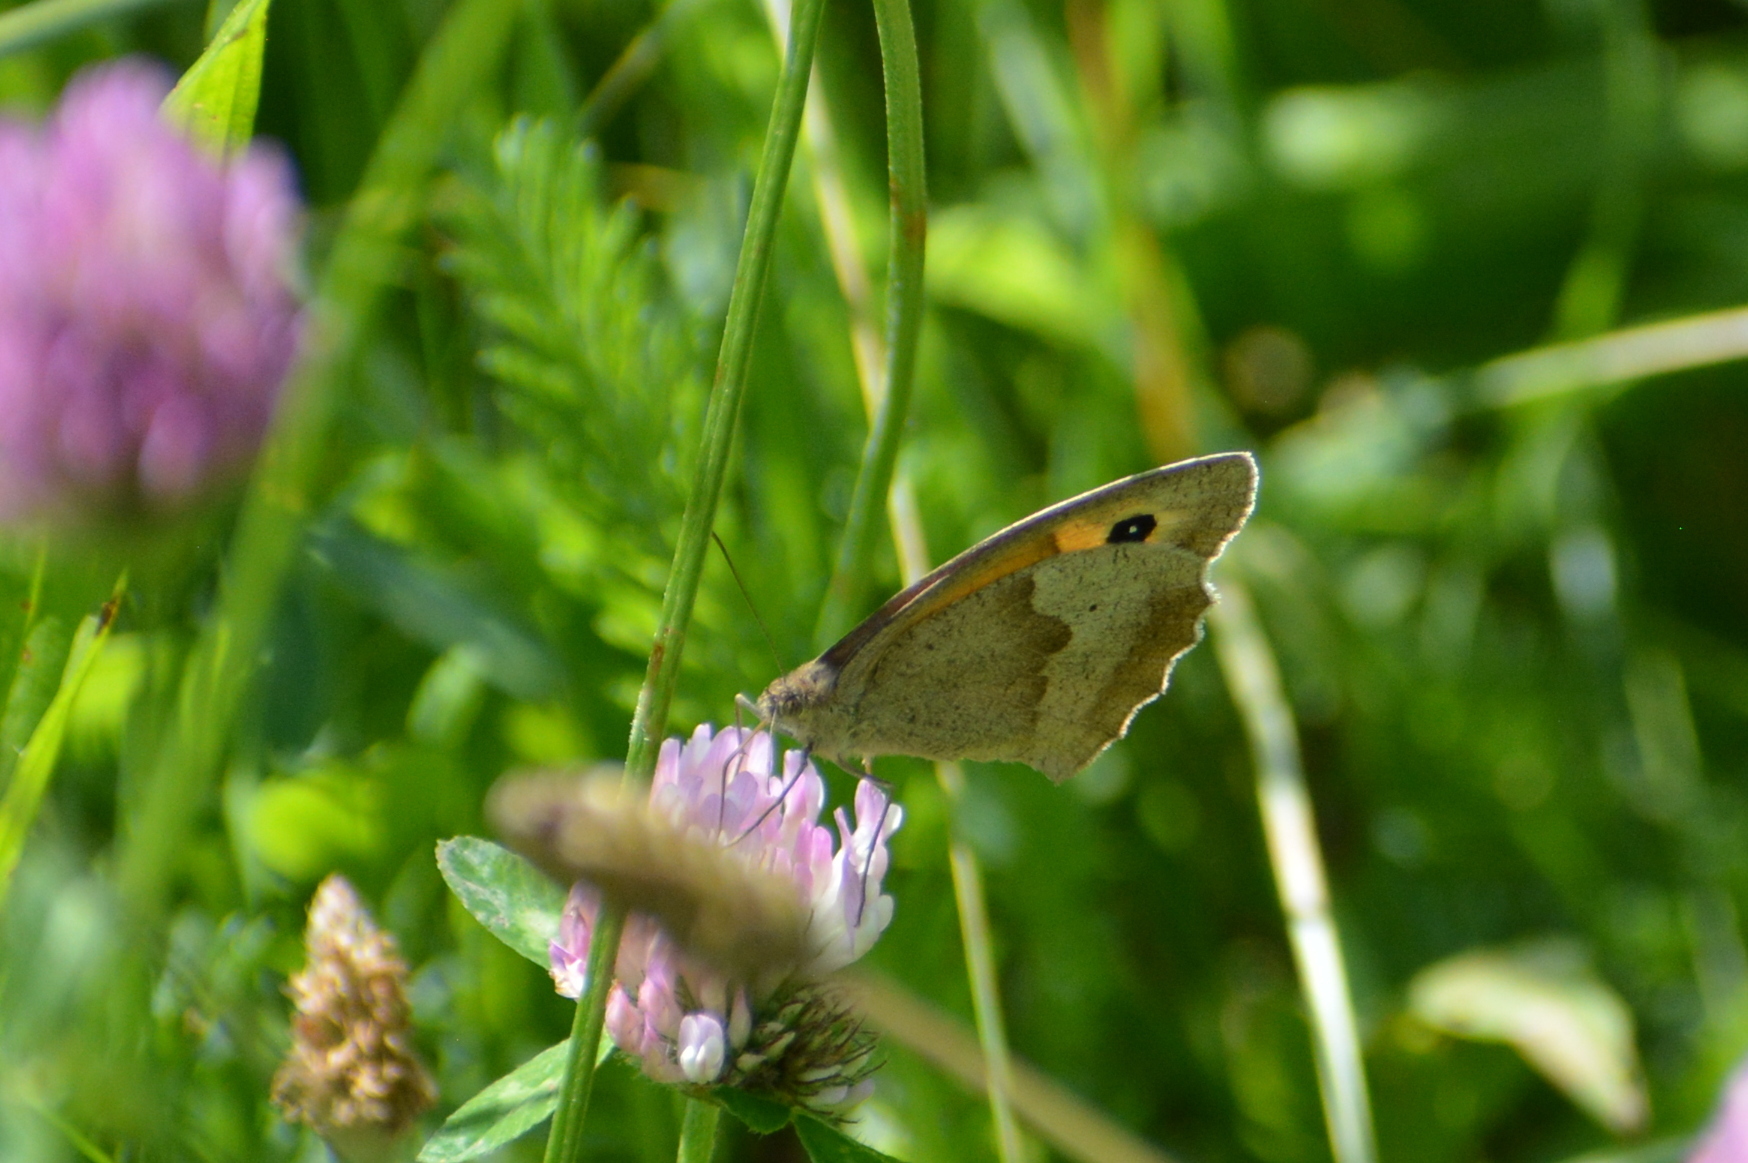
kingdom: Animalia
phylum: Arthropoda
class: Insecta
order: Lepidoptera
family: Nymphalidae
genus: Maniola
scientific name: Maniola jurtina
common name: Meadow brown
